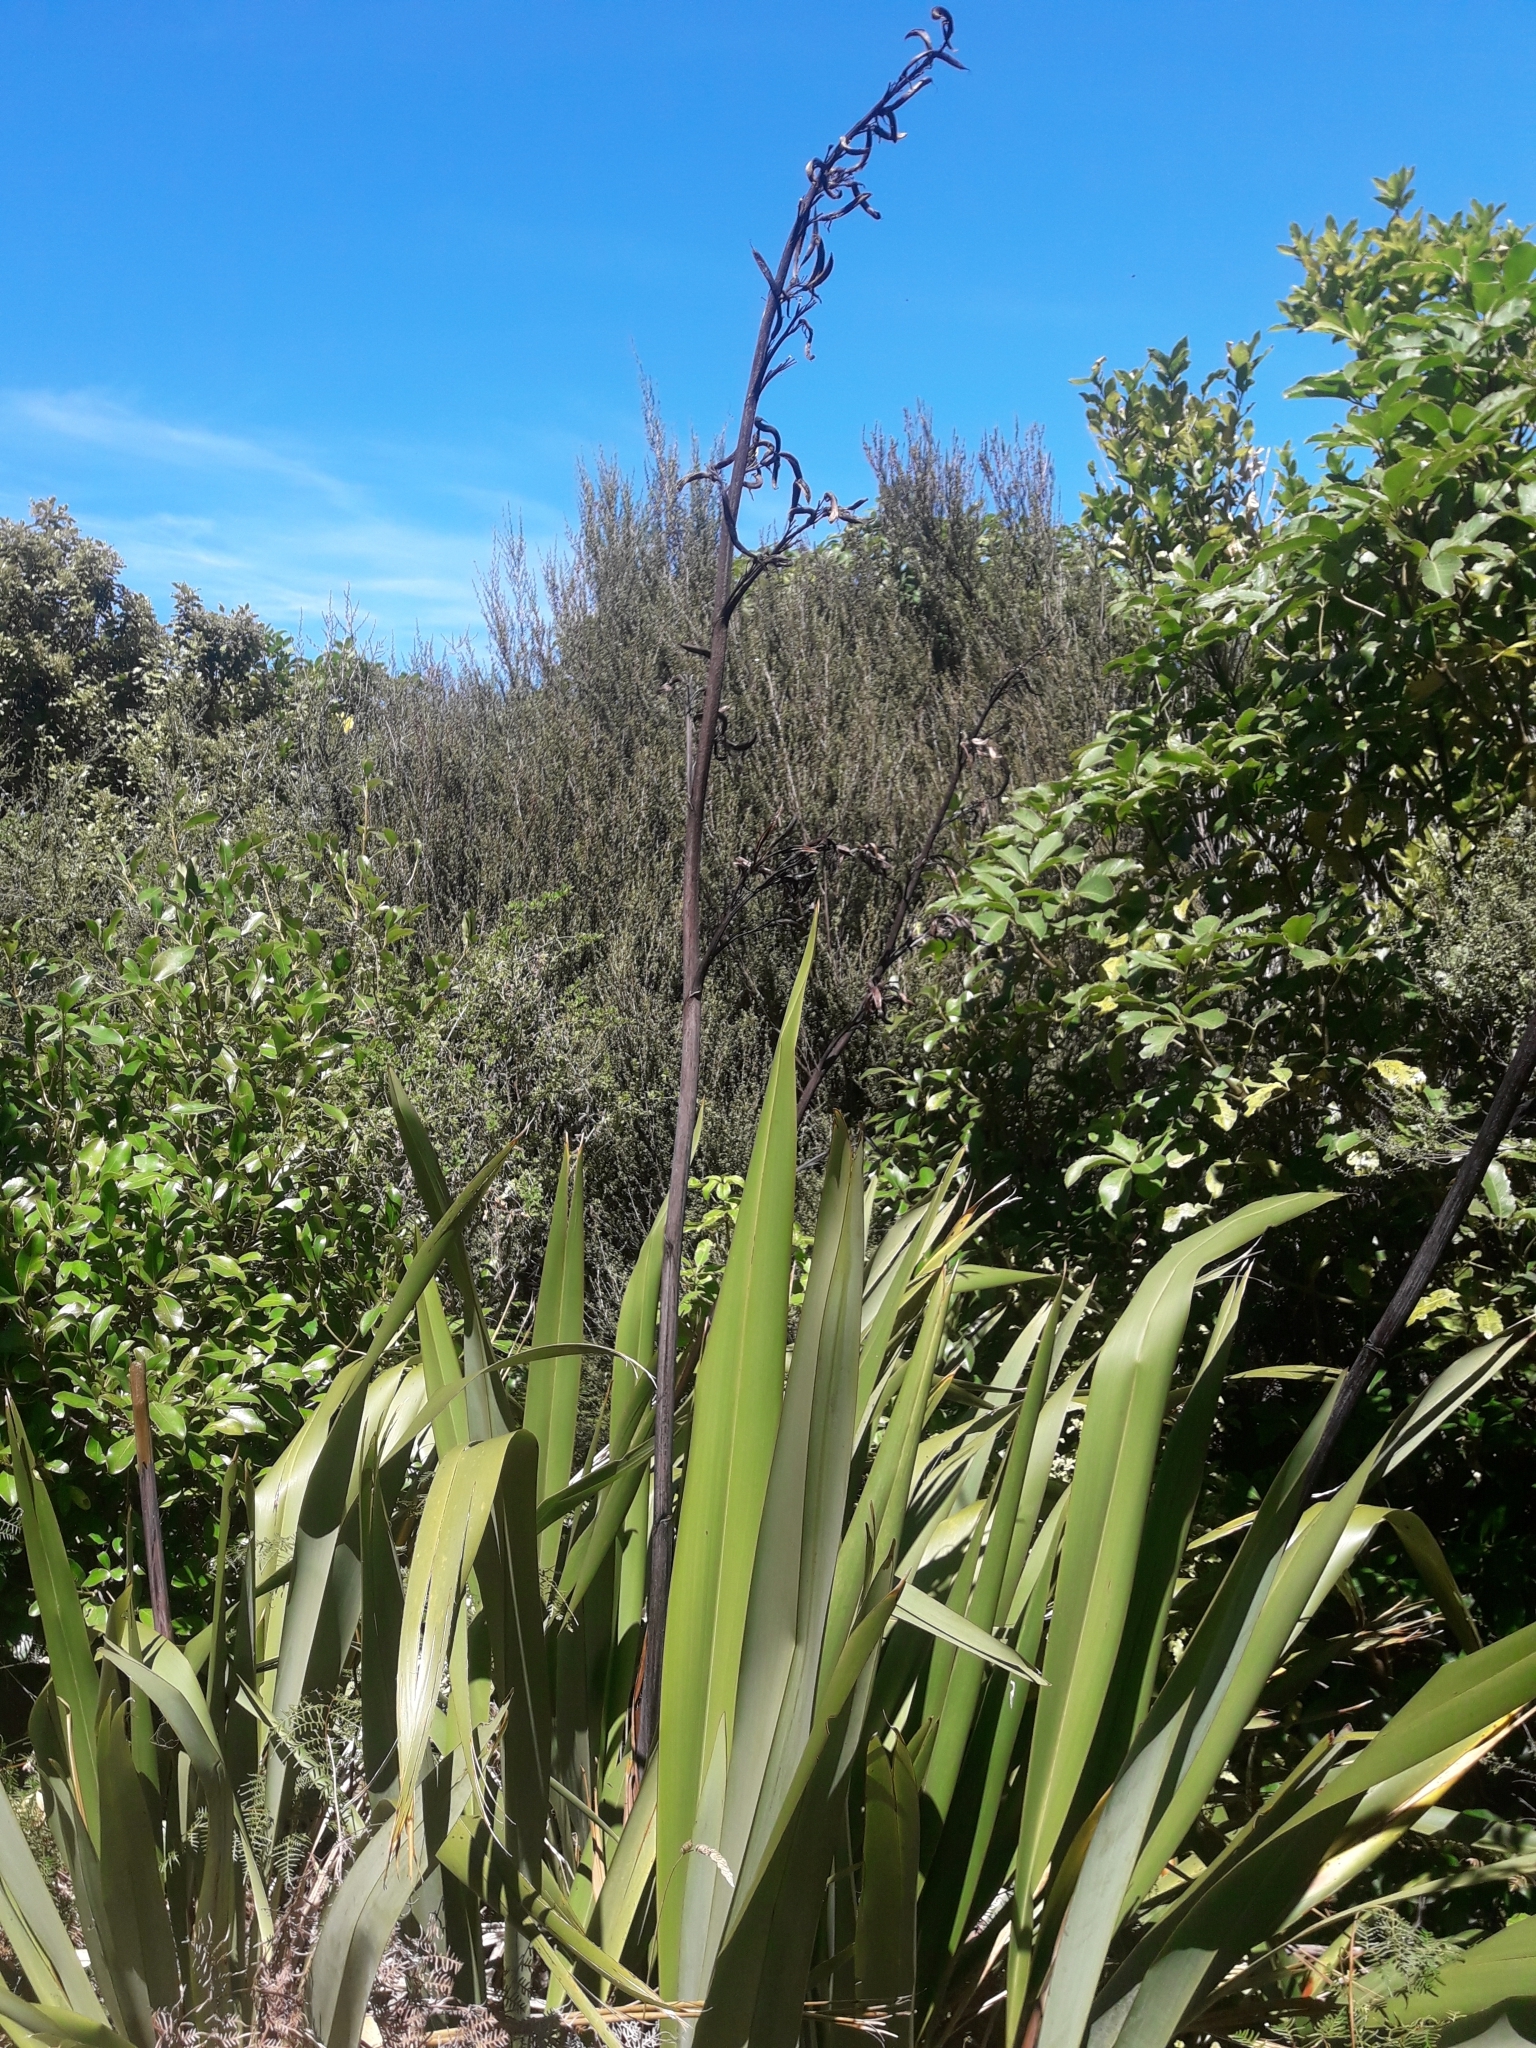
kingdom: Plantae
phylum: Tracheophyta
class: Liliopsida
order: Asparagales
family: Asphodelaceae
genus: Phormium
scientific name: Phormium tenax
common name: New zealand flax
